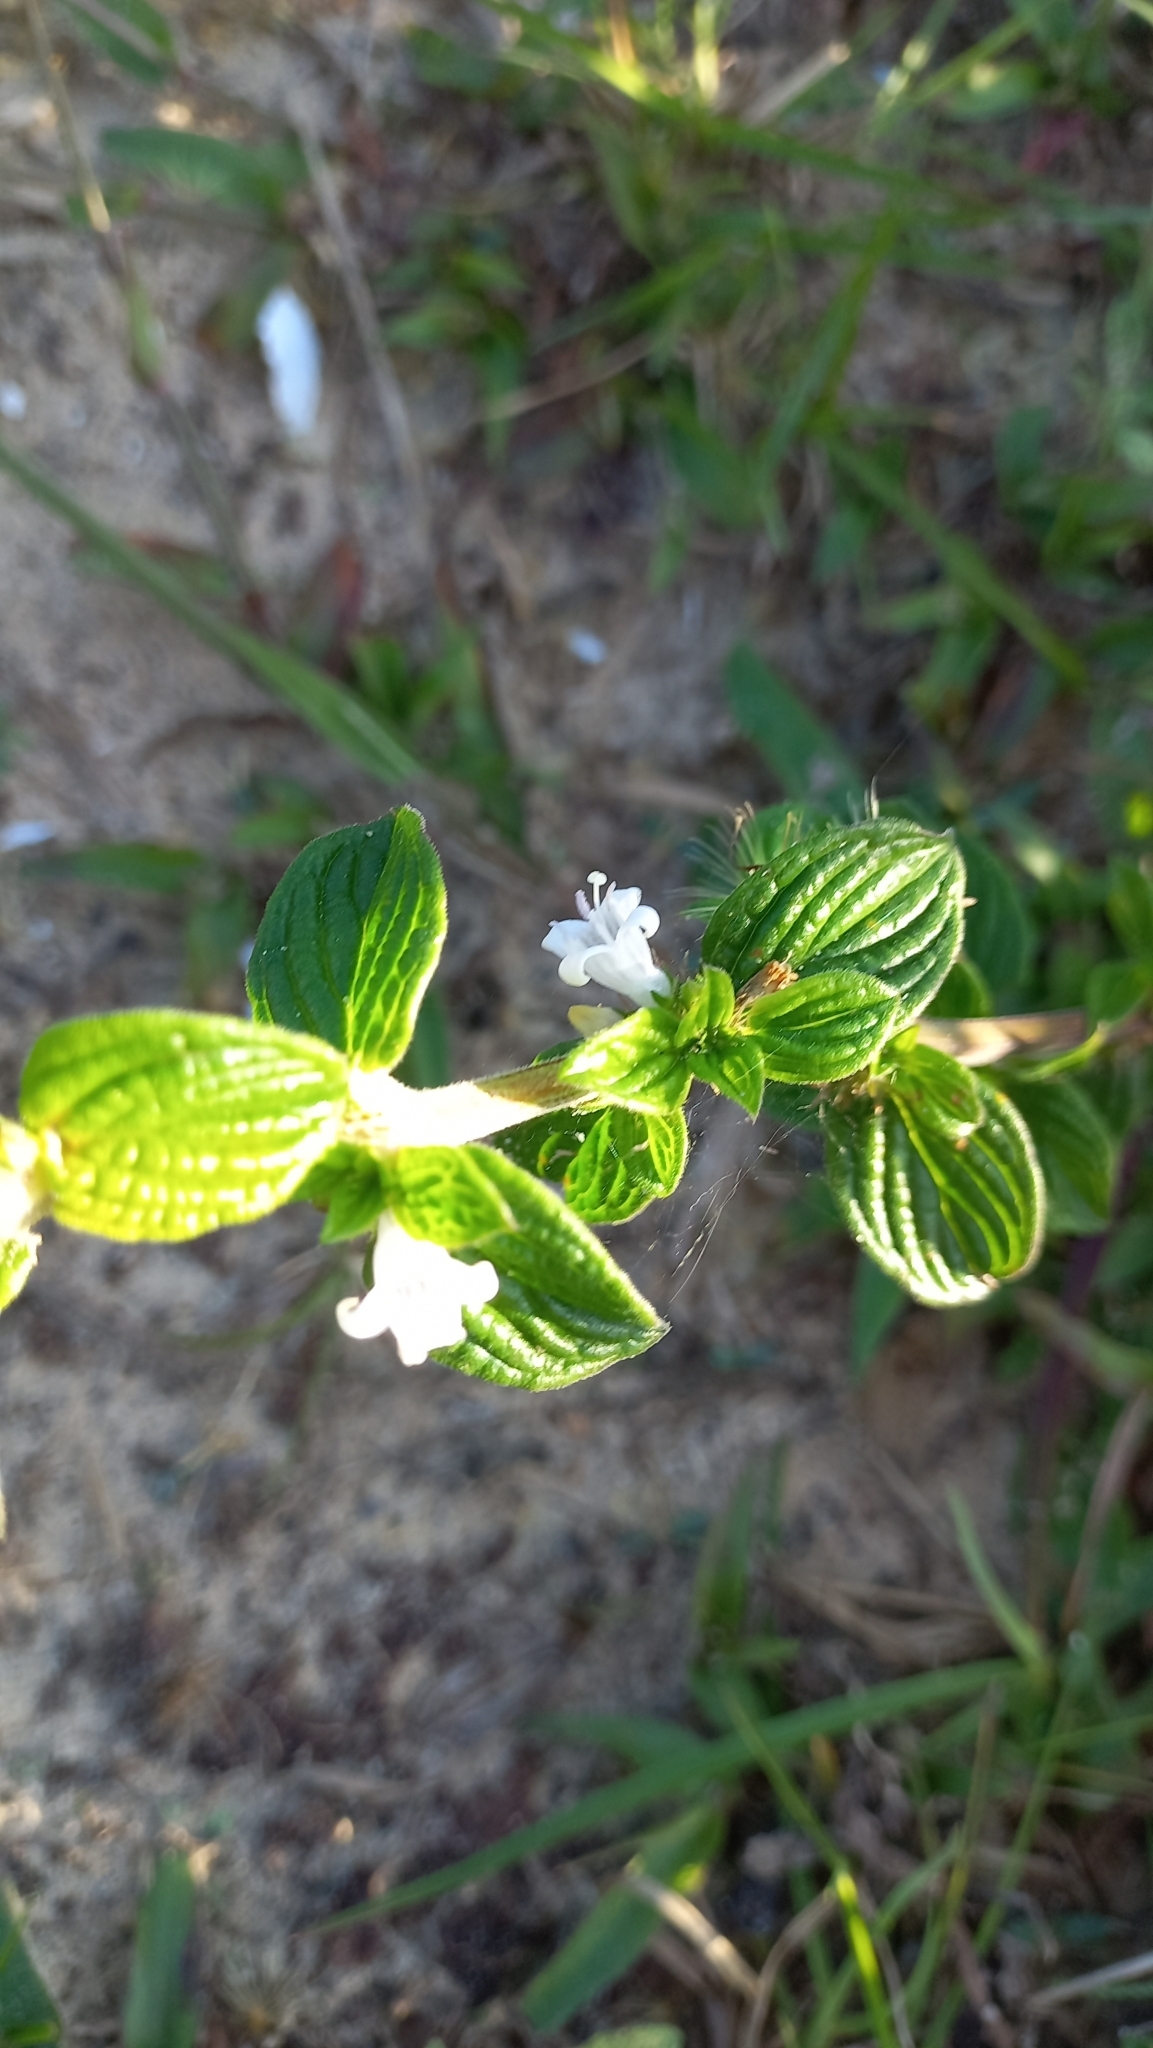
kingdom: Plantae
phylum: Tracheophyta
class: Magnoliopsida
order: Gentianales
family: Rubiaceae
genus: Hexasepalum
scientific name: Hexasepalum radulum
